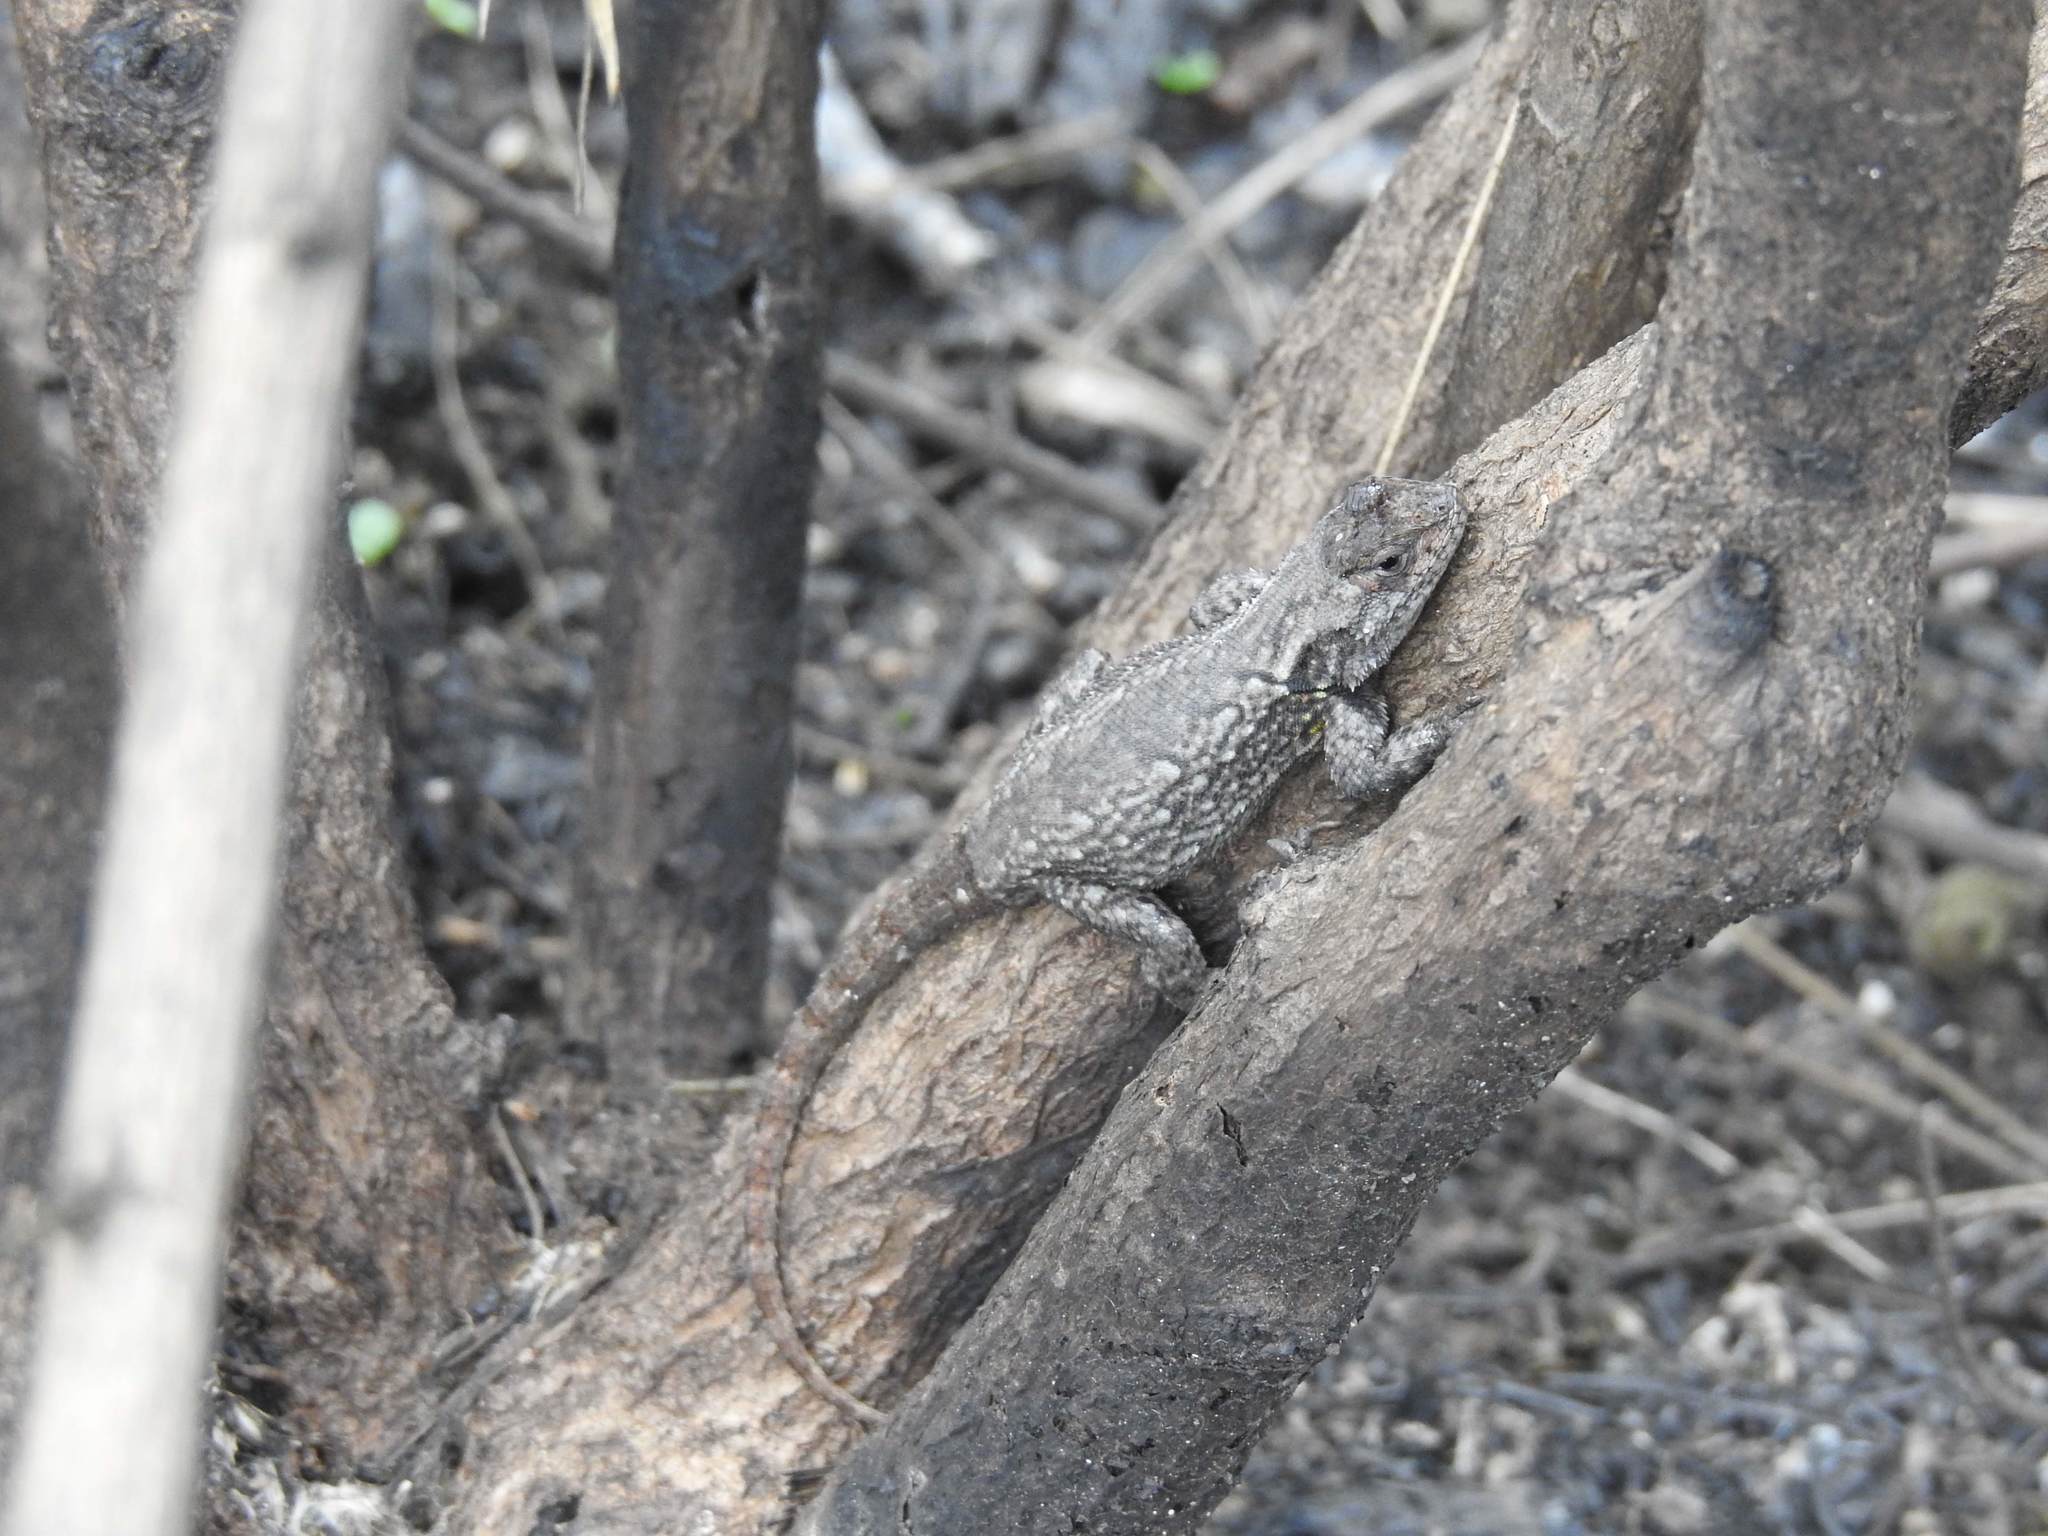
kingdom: Animalia
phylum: Chordata
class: Squamata
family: Phrynosomatidae
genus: Sceloporus
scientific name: Sceloporus grammicus
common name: Mesquite lizard
